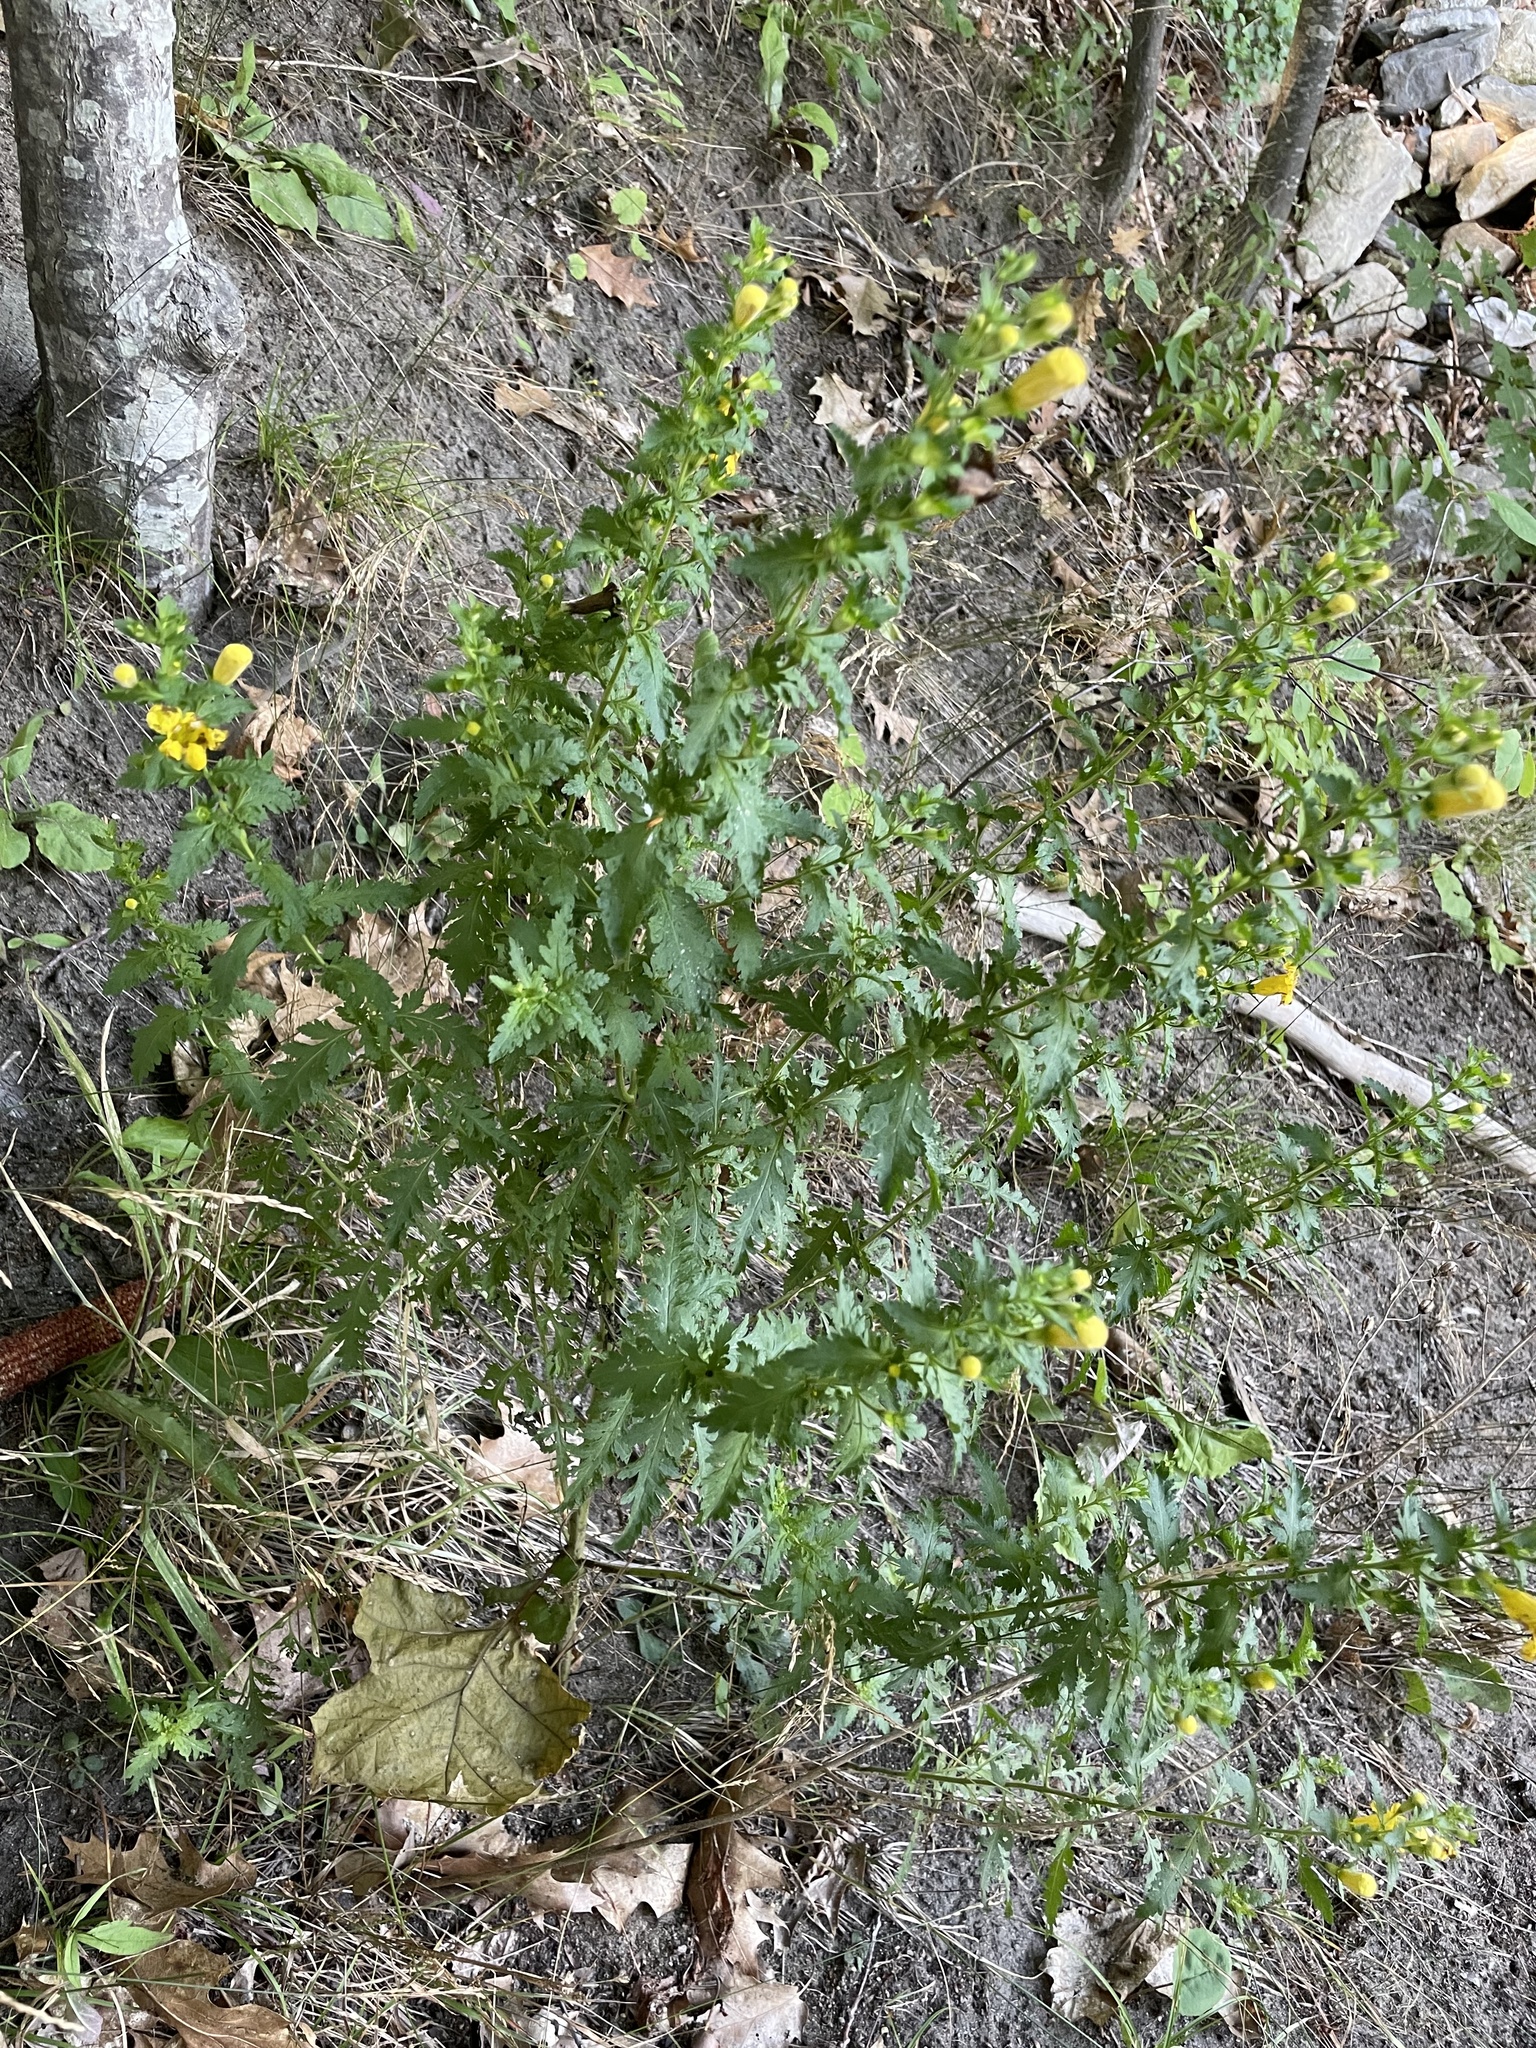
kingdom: Plantae
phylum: Tracheophyta
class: Magnoliopsida
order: Lamiales
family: Orobanchaceae
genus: Aureolaria
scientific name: Aureolaria pedicularia
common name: Annual false foxglove
